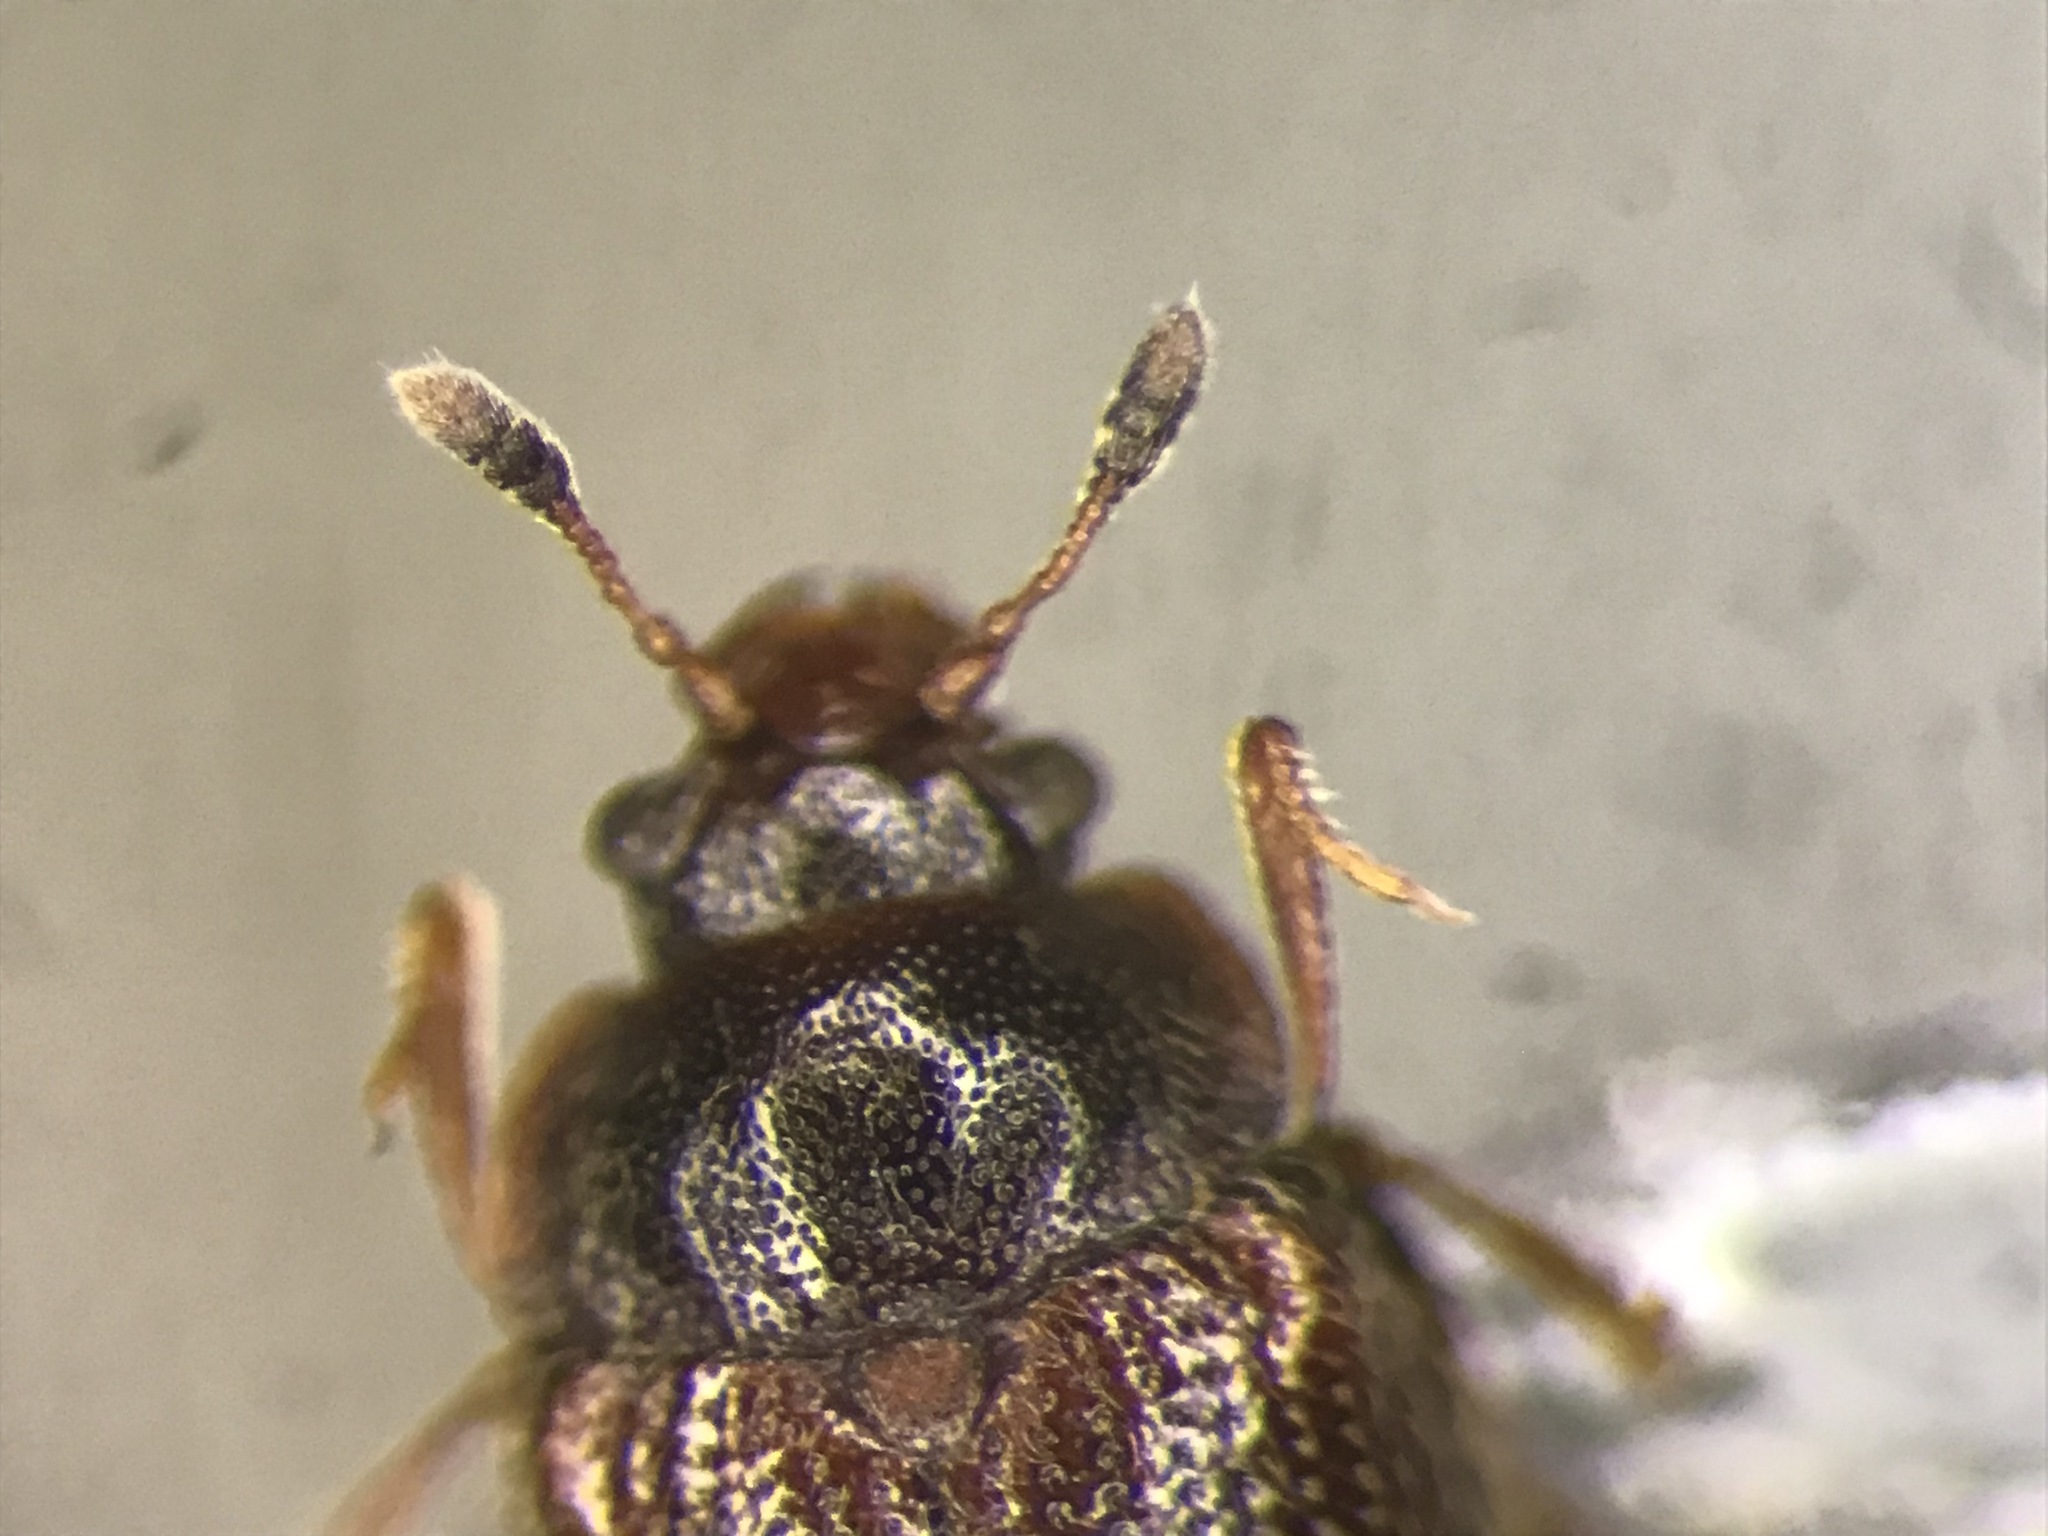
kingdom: Animalia
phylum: Arthropoda
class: Insecta
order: Coleoptera
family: Sphindidae
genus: Eurysphindus
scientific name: Eurysphindus comatulus
